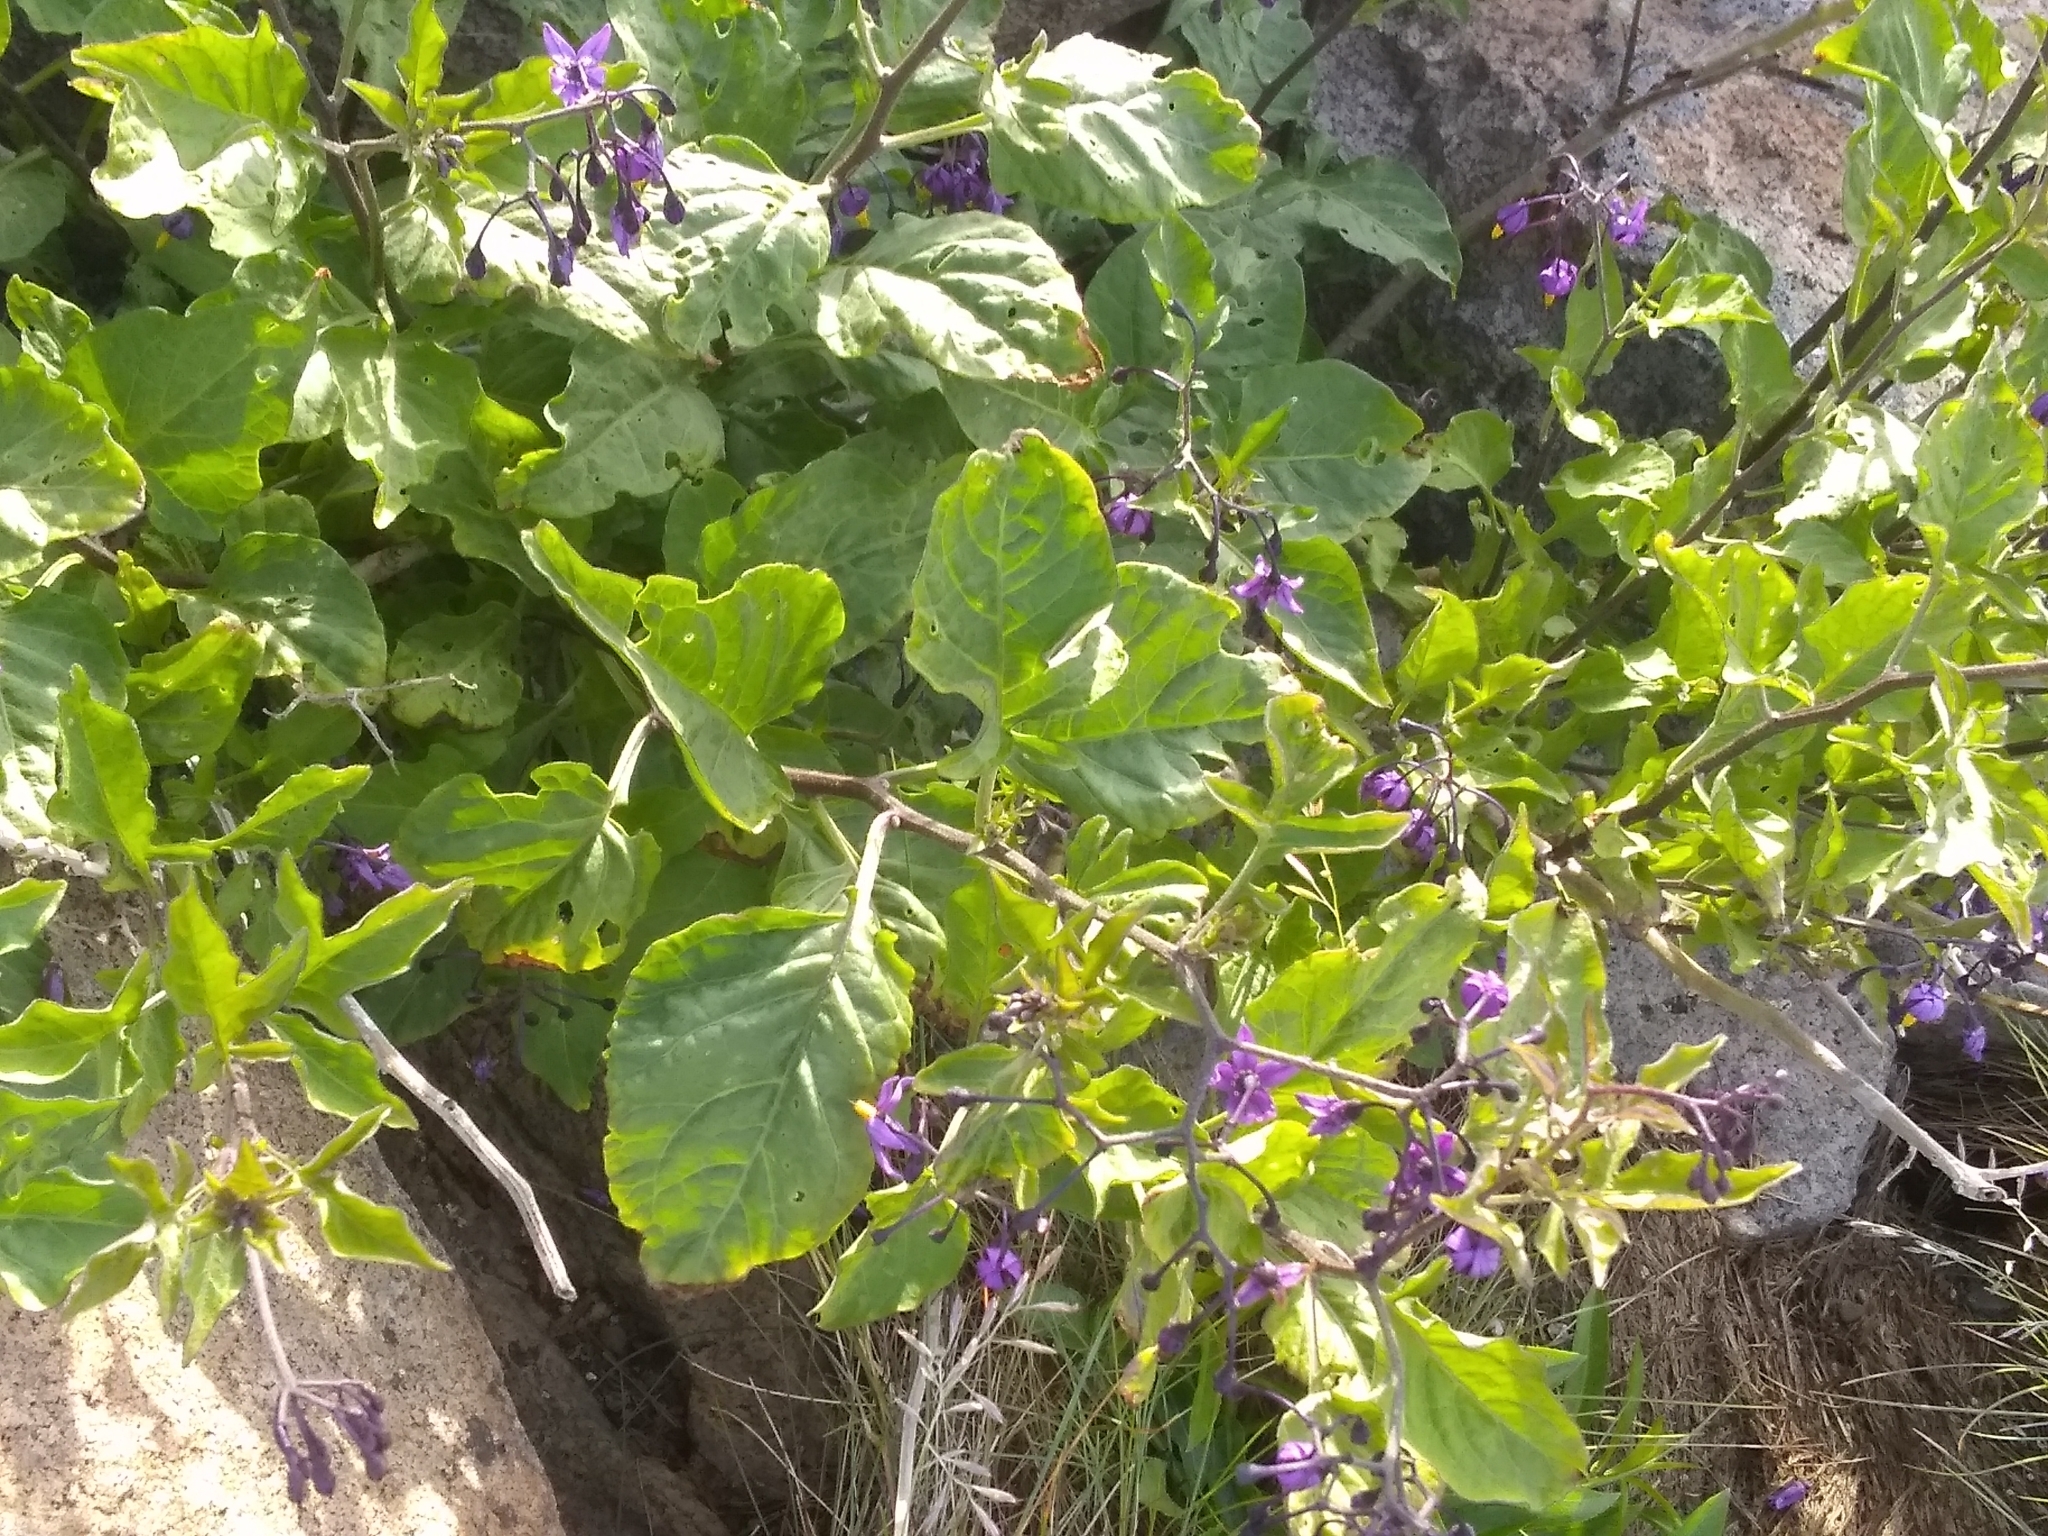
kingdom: Plantae
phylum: Tracheophyta
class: Magnoliopsida
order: Solanales
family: Solanaceae
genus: Solanum
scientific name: Solanum dulcamara
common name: Climbing nightshade
